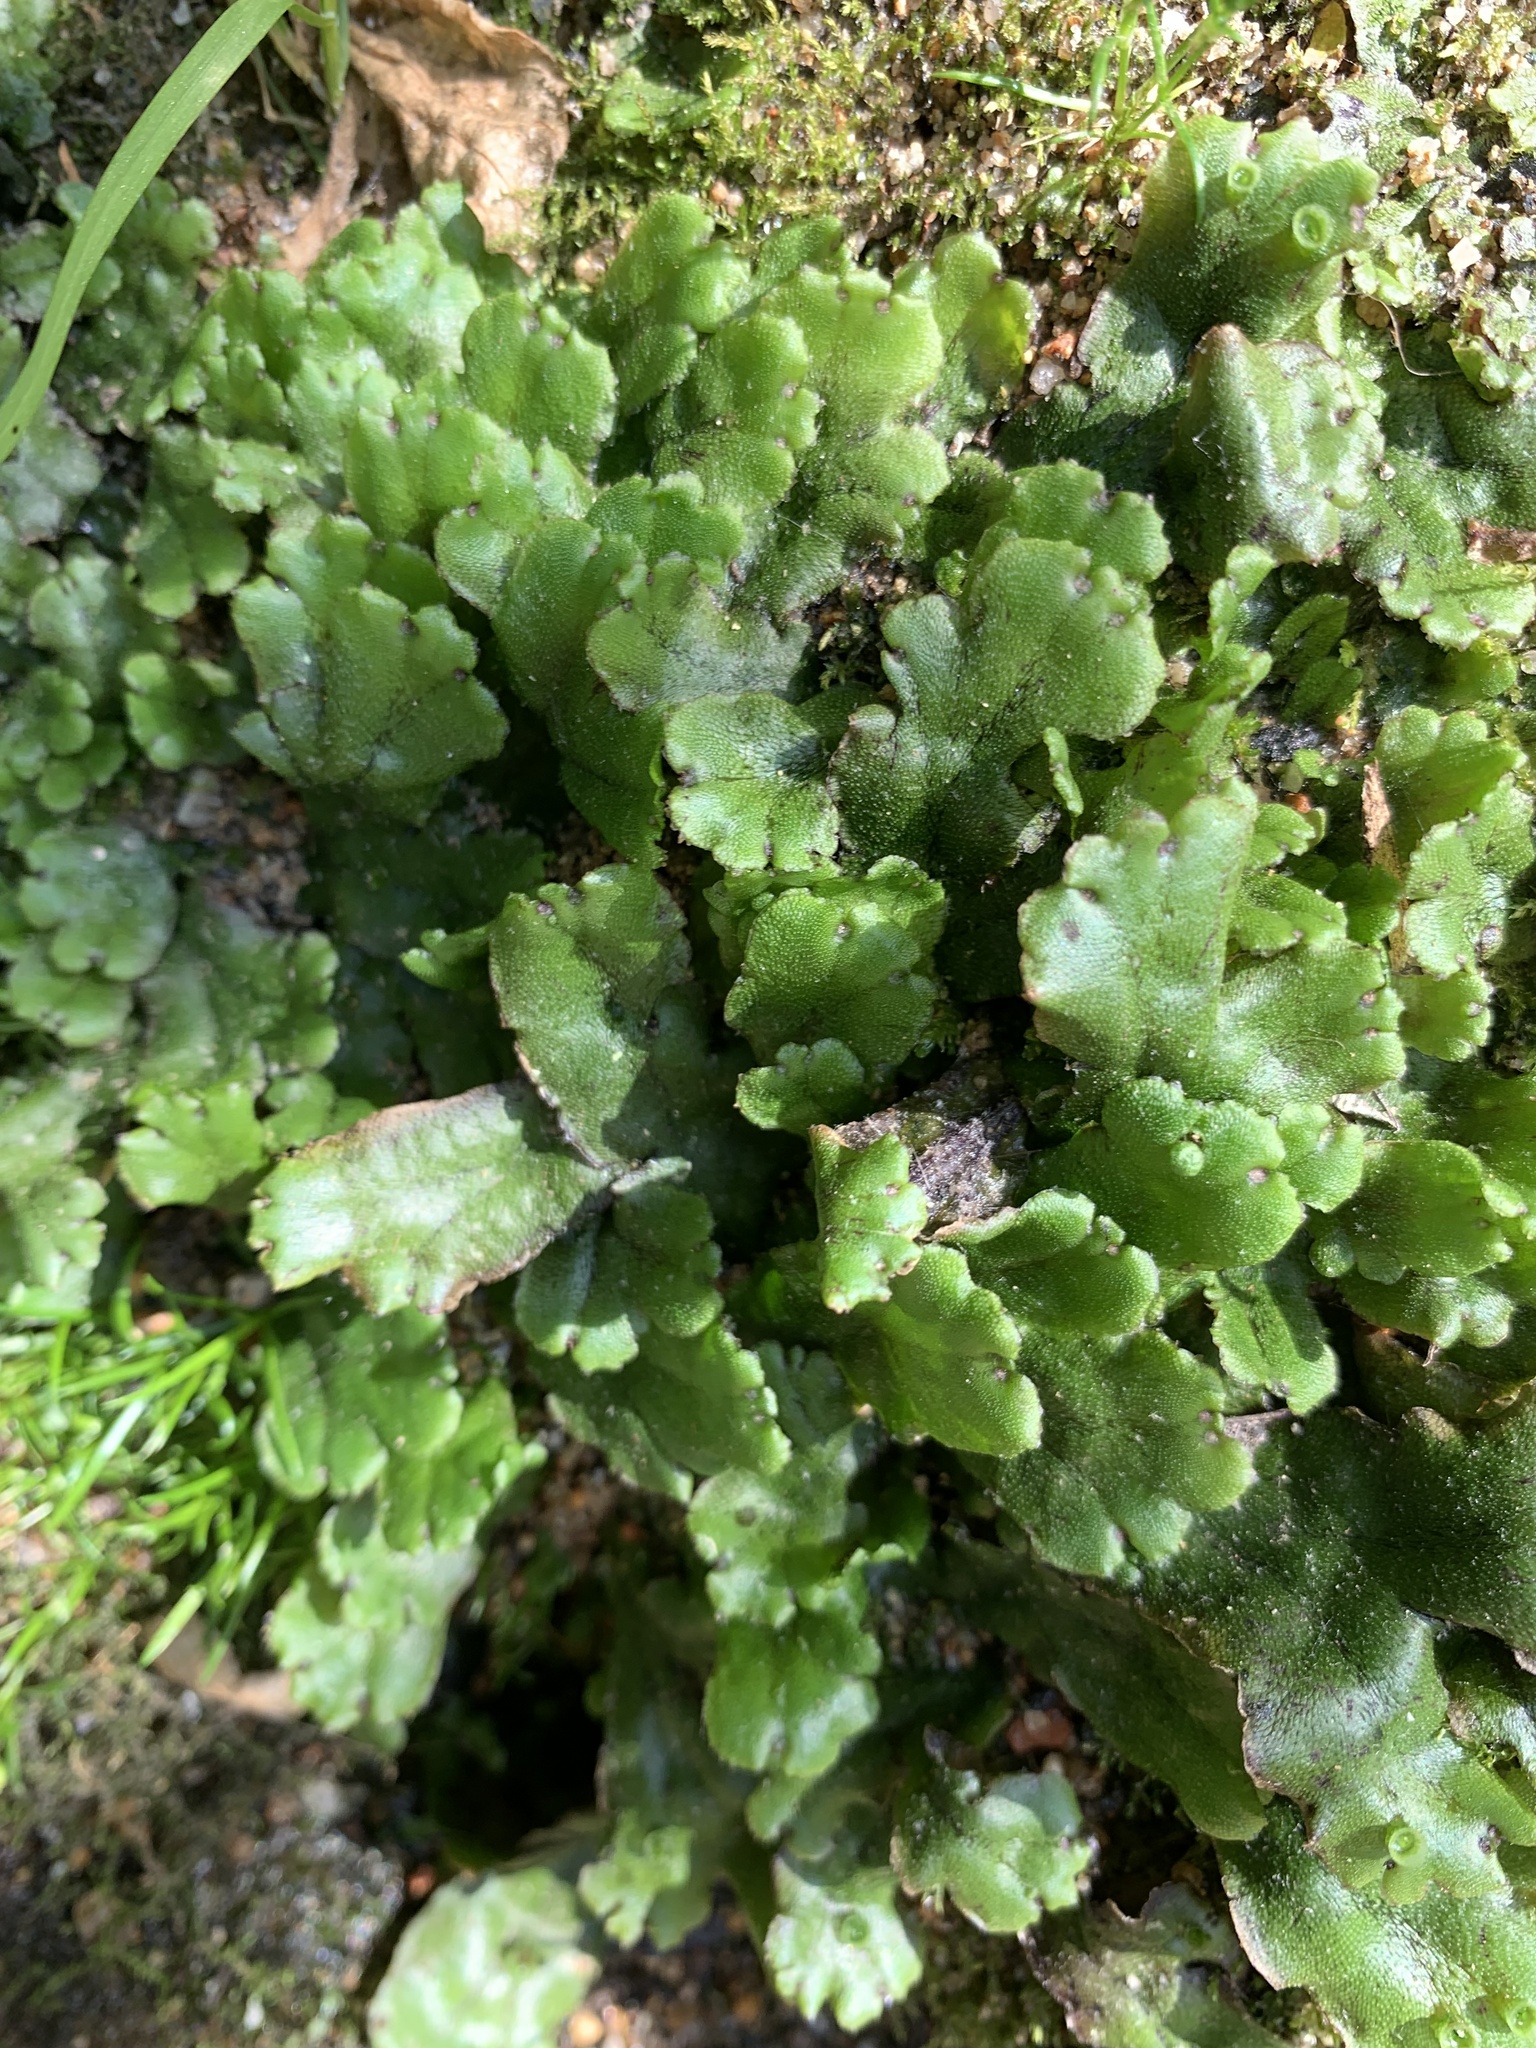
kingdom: Plantae
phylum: Marchantiophyta
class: Marchantiopsida
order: Marchantiales
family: Marchantiaceae
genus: Marchantia
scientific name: Marchantia polymorpha
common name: Common liverwort
